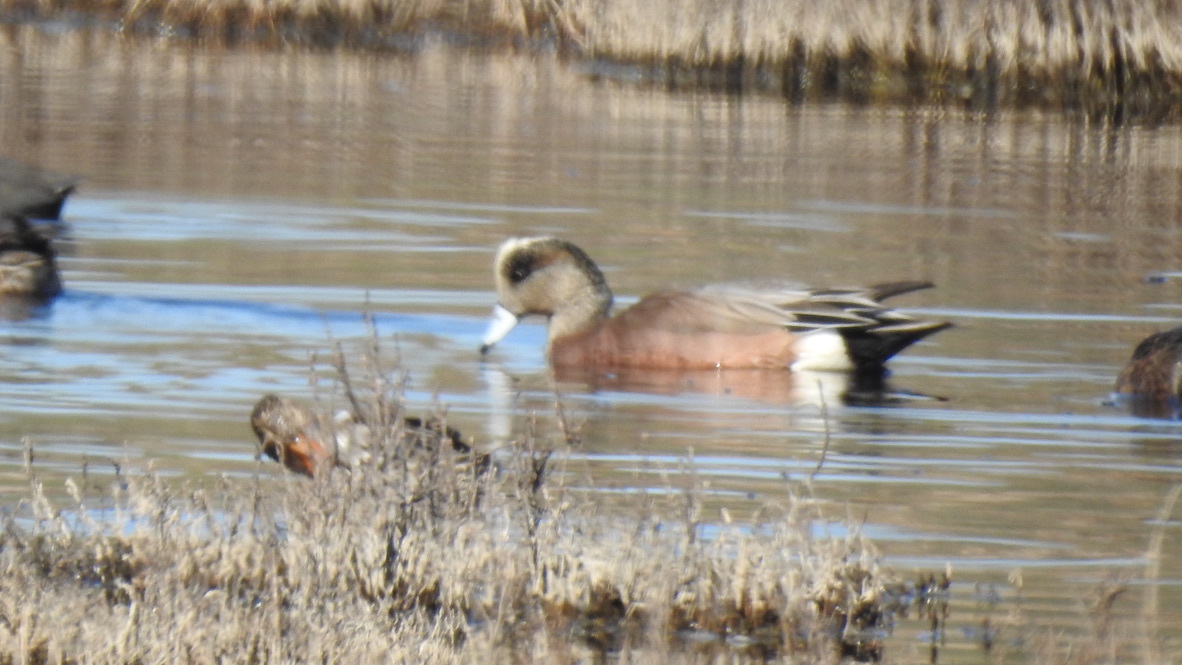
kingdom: Animalia
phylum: Chordata
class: Aves
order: Anseriformes
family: Anatidae
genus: Mareca
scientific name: Mareca americana
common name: American wigeon
